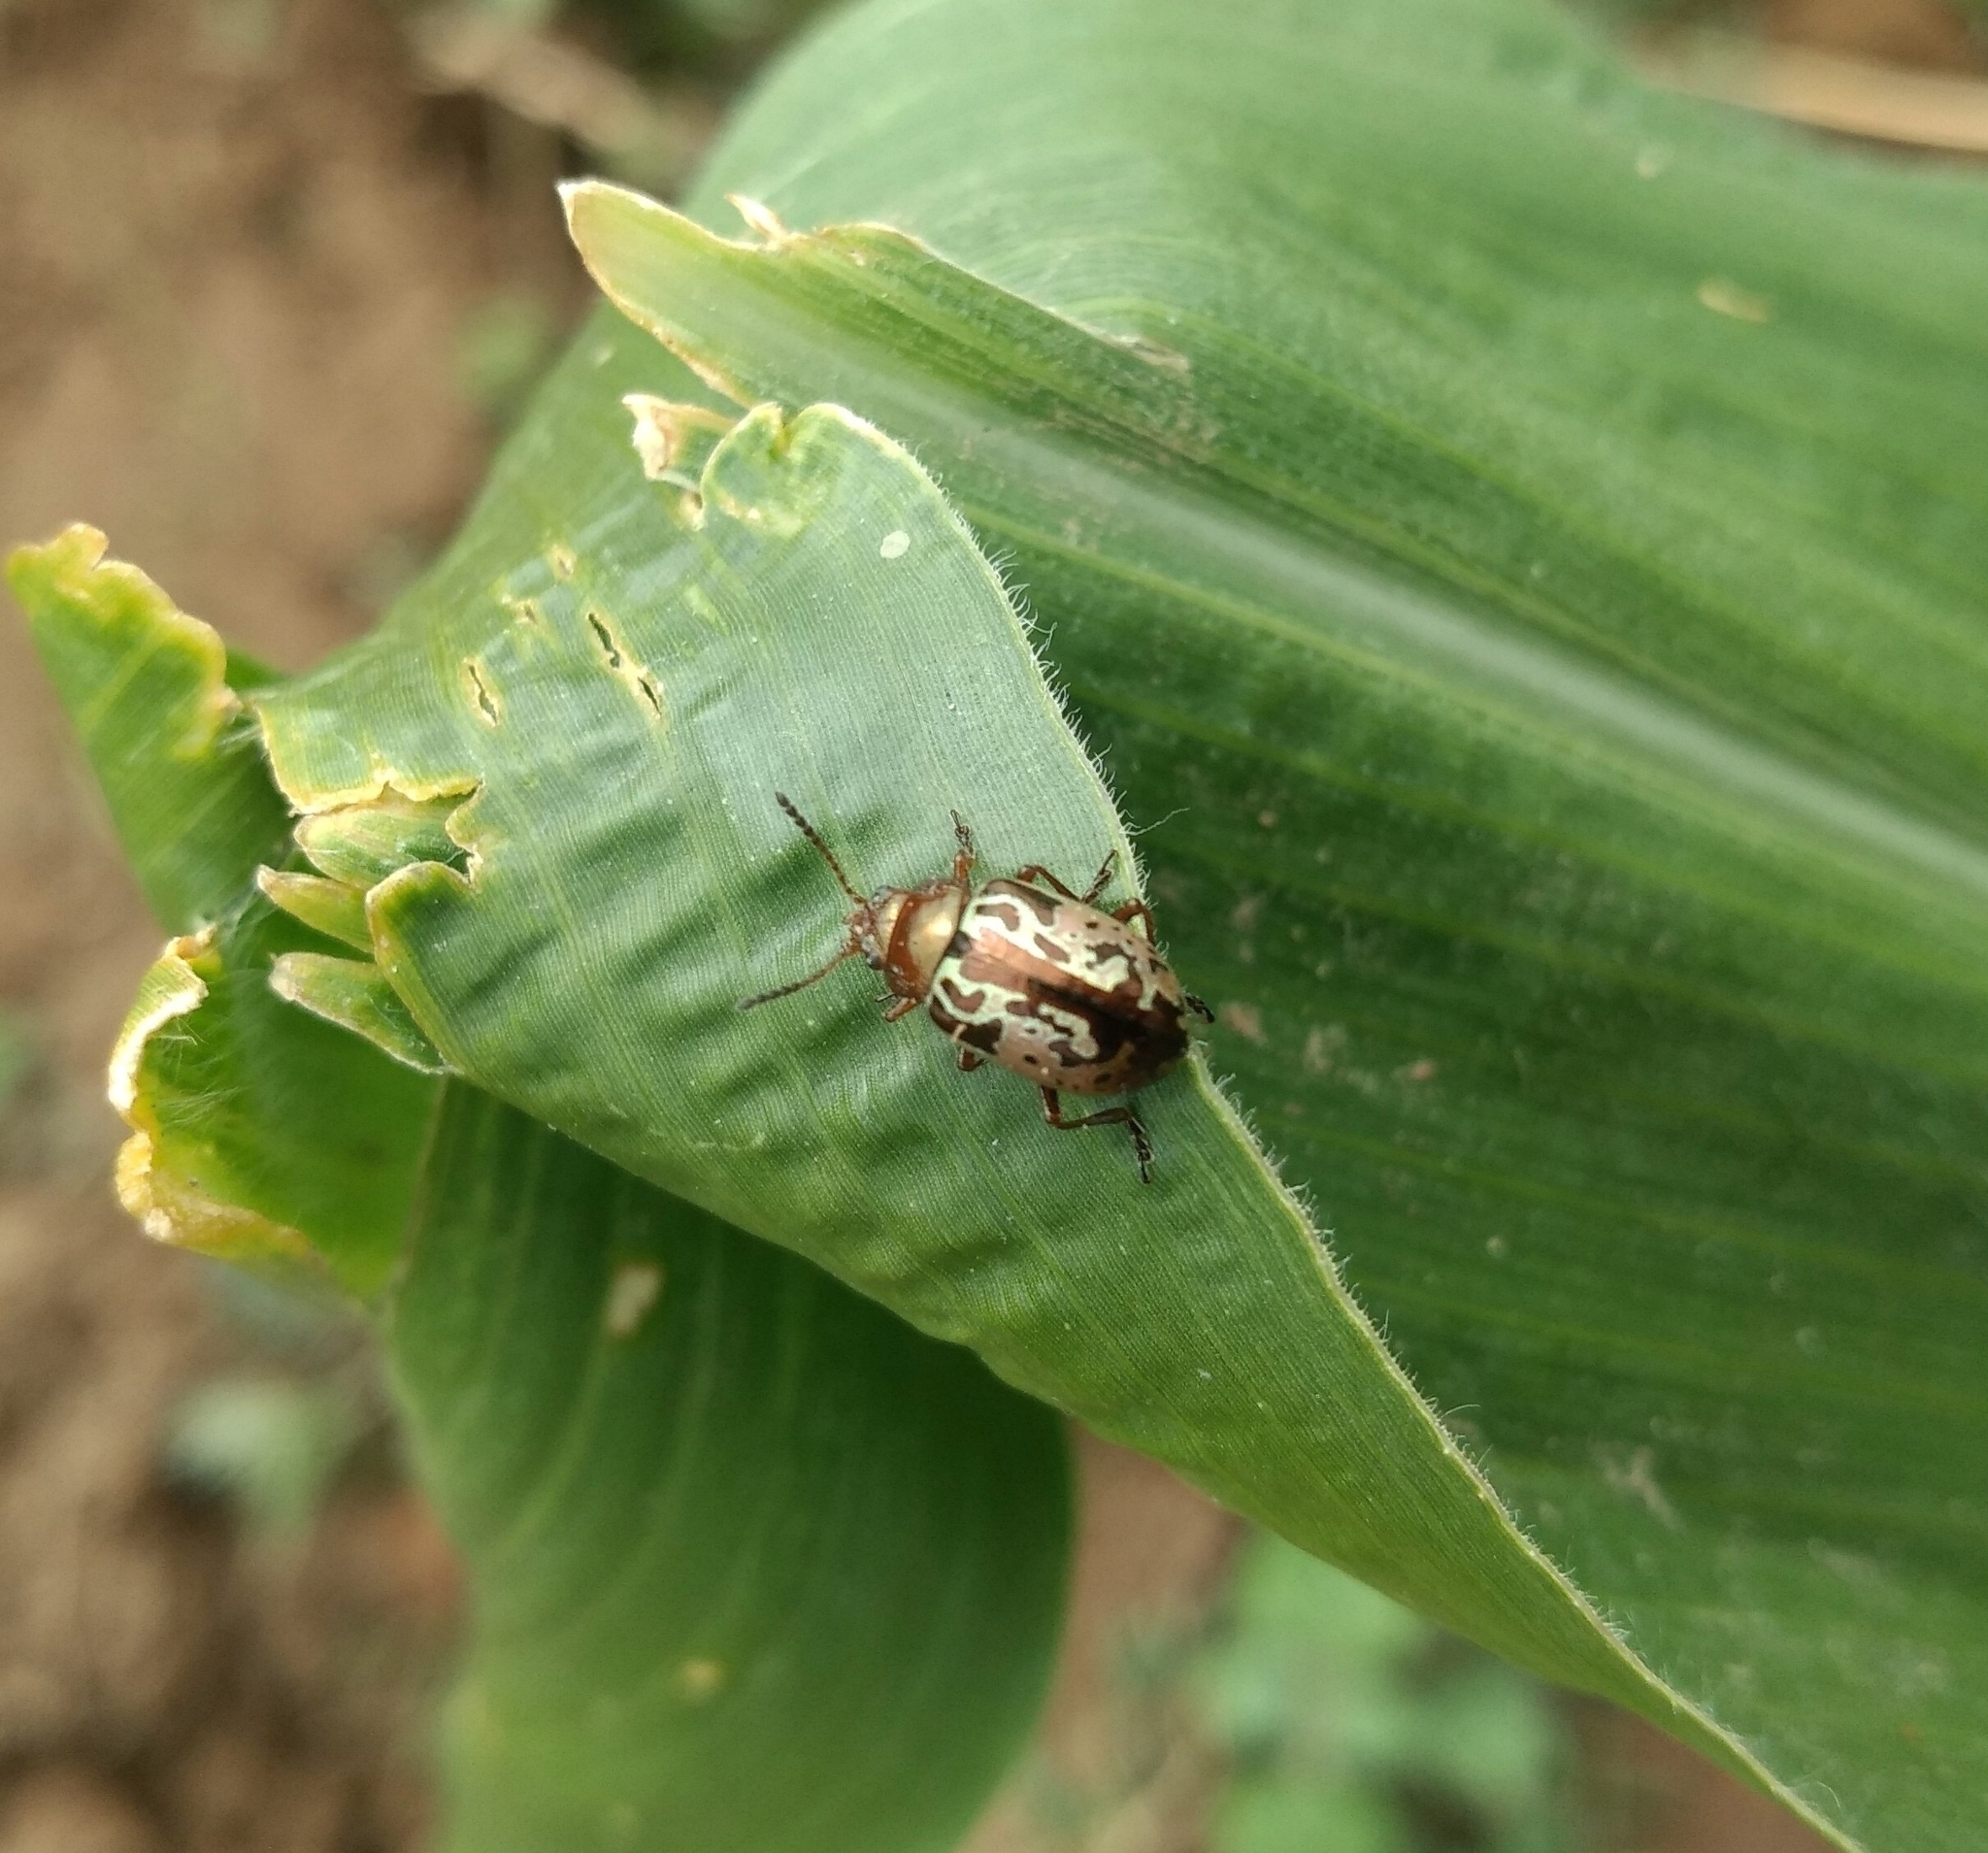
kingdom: Animalia
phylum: Arthropoda
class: Insecta
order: Coleoptera
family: Chrysomelidae
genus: Calligrapha
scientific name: Calligrapha
